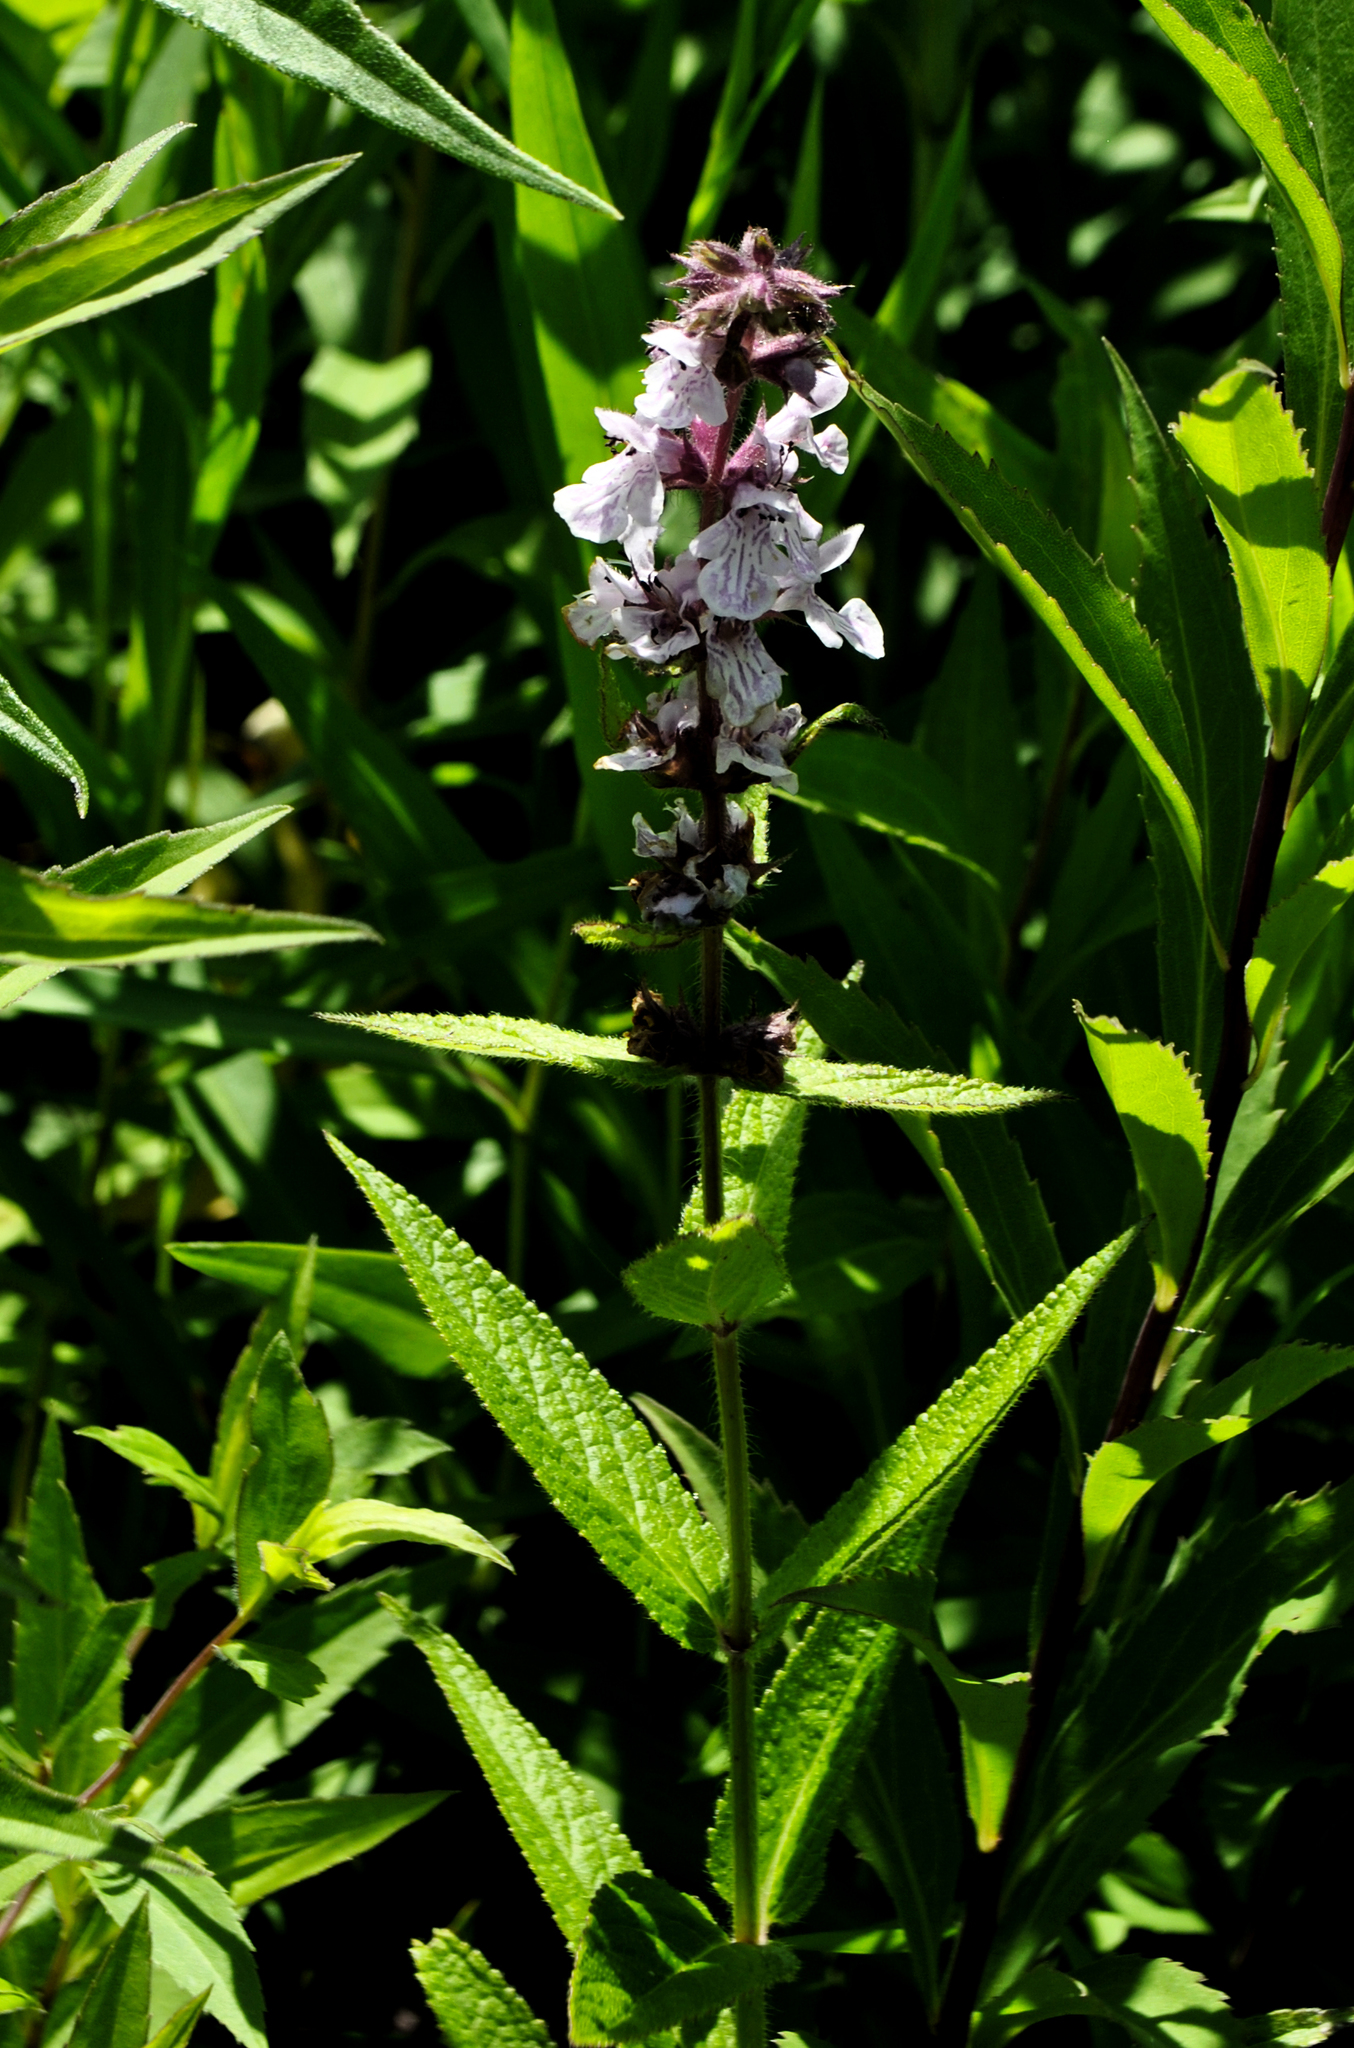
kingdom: Plantae
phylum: Tracheophyta
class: Magnoliopsida
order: Lamiales
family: Lamiaceae
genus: Stachys
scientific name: Stachys palustris
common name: Marsh woundwort
